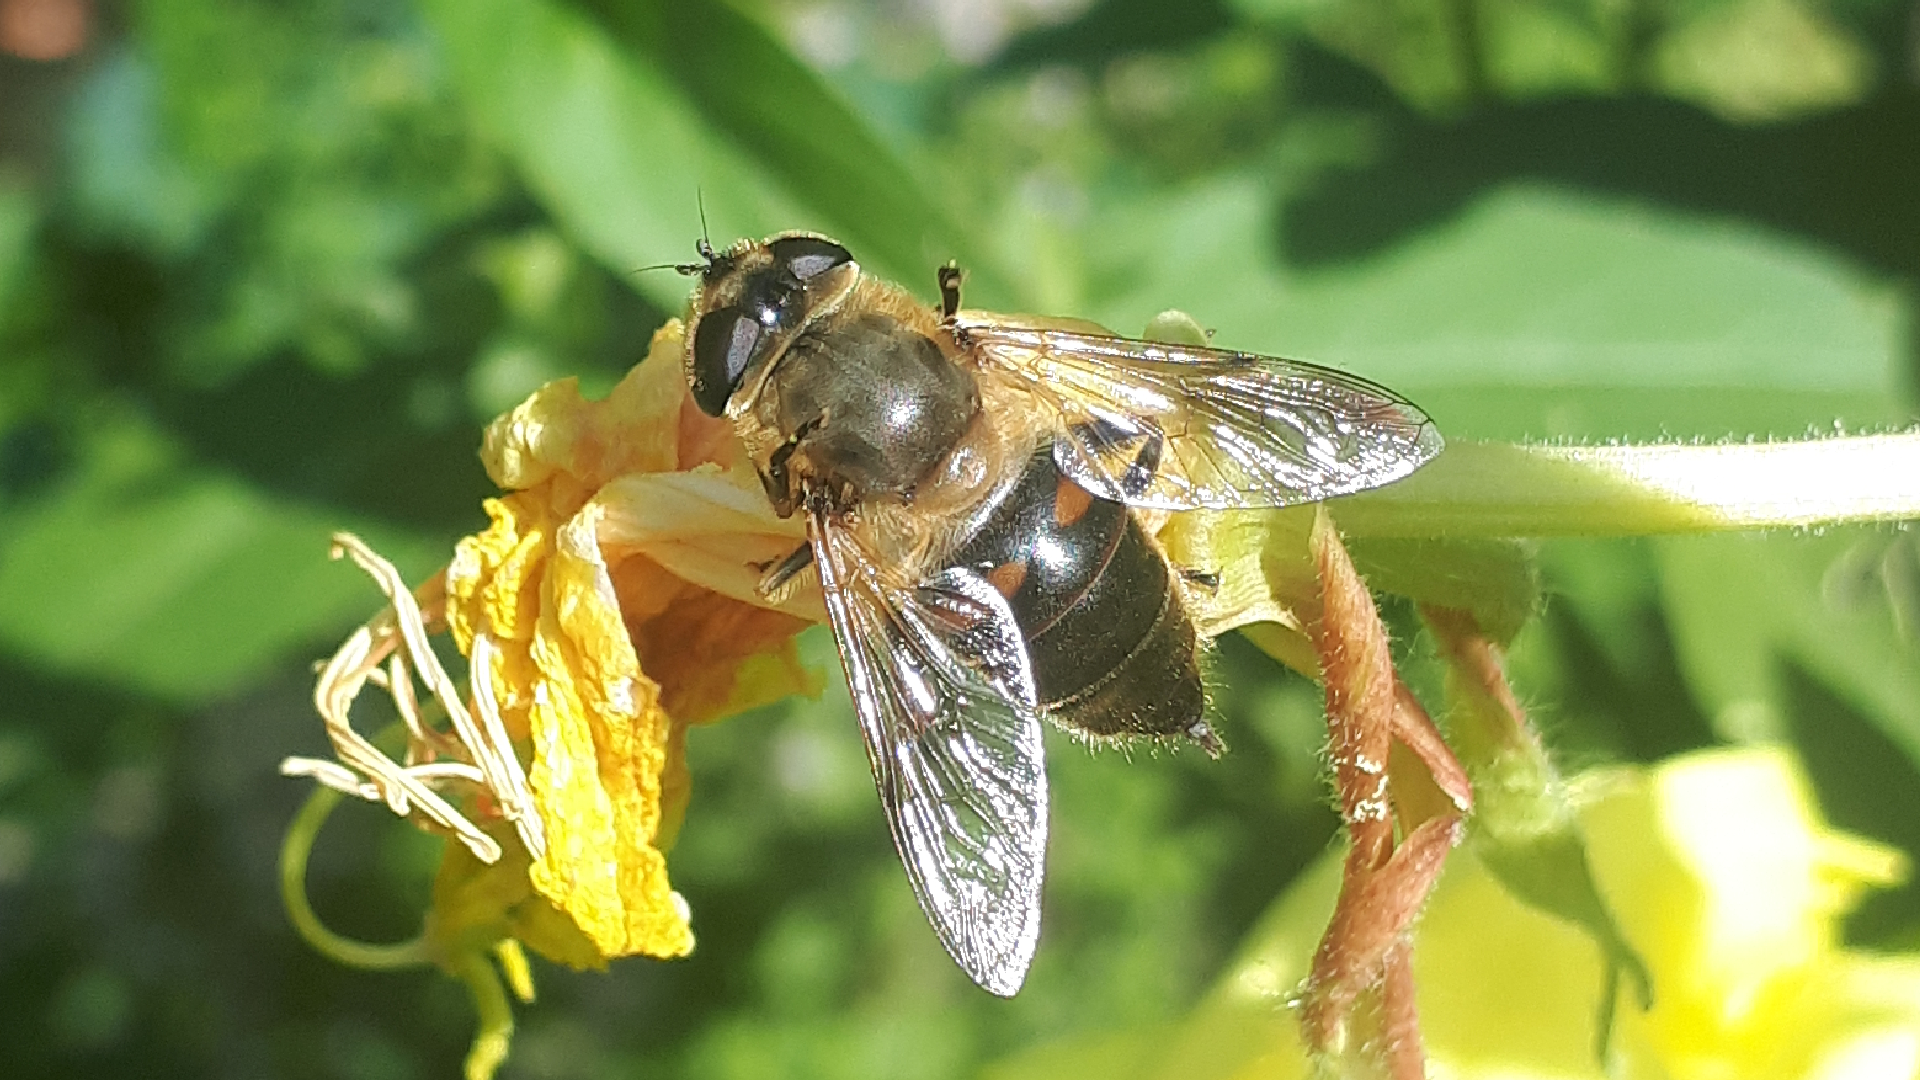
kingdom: Animalia
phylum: Arthropoda
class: Insecta
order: Diptera
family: Syrphidae
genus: Eristalis
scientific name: Eristalis tenax
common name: Drone fly
